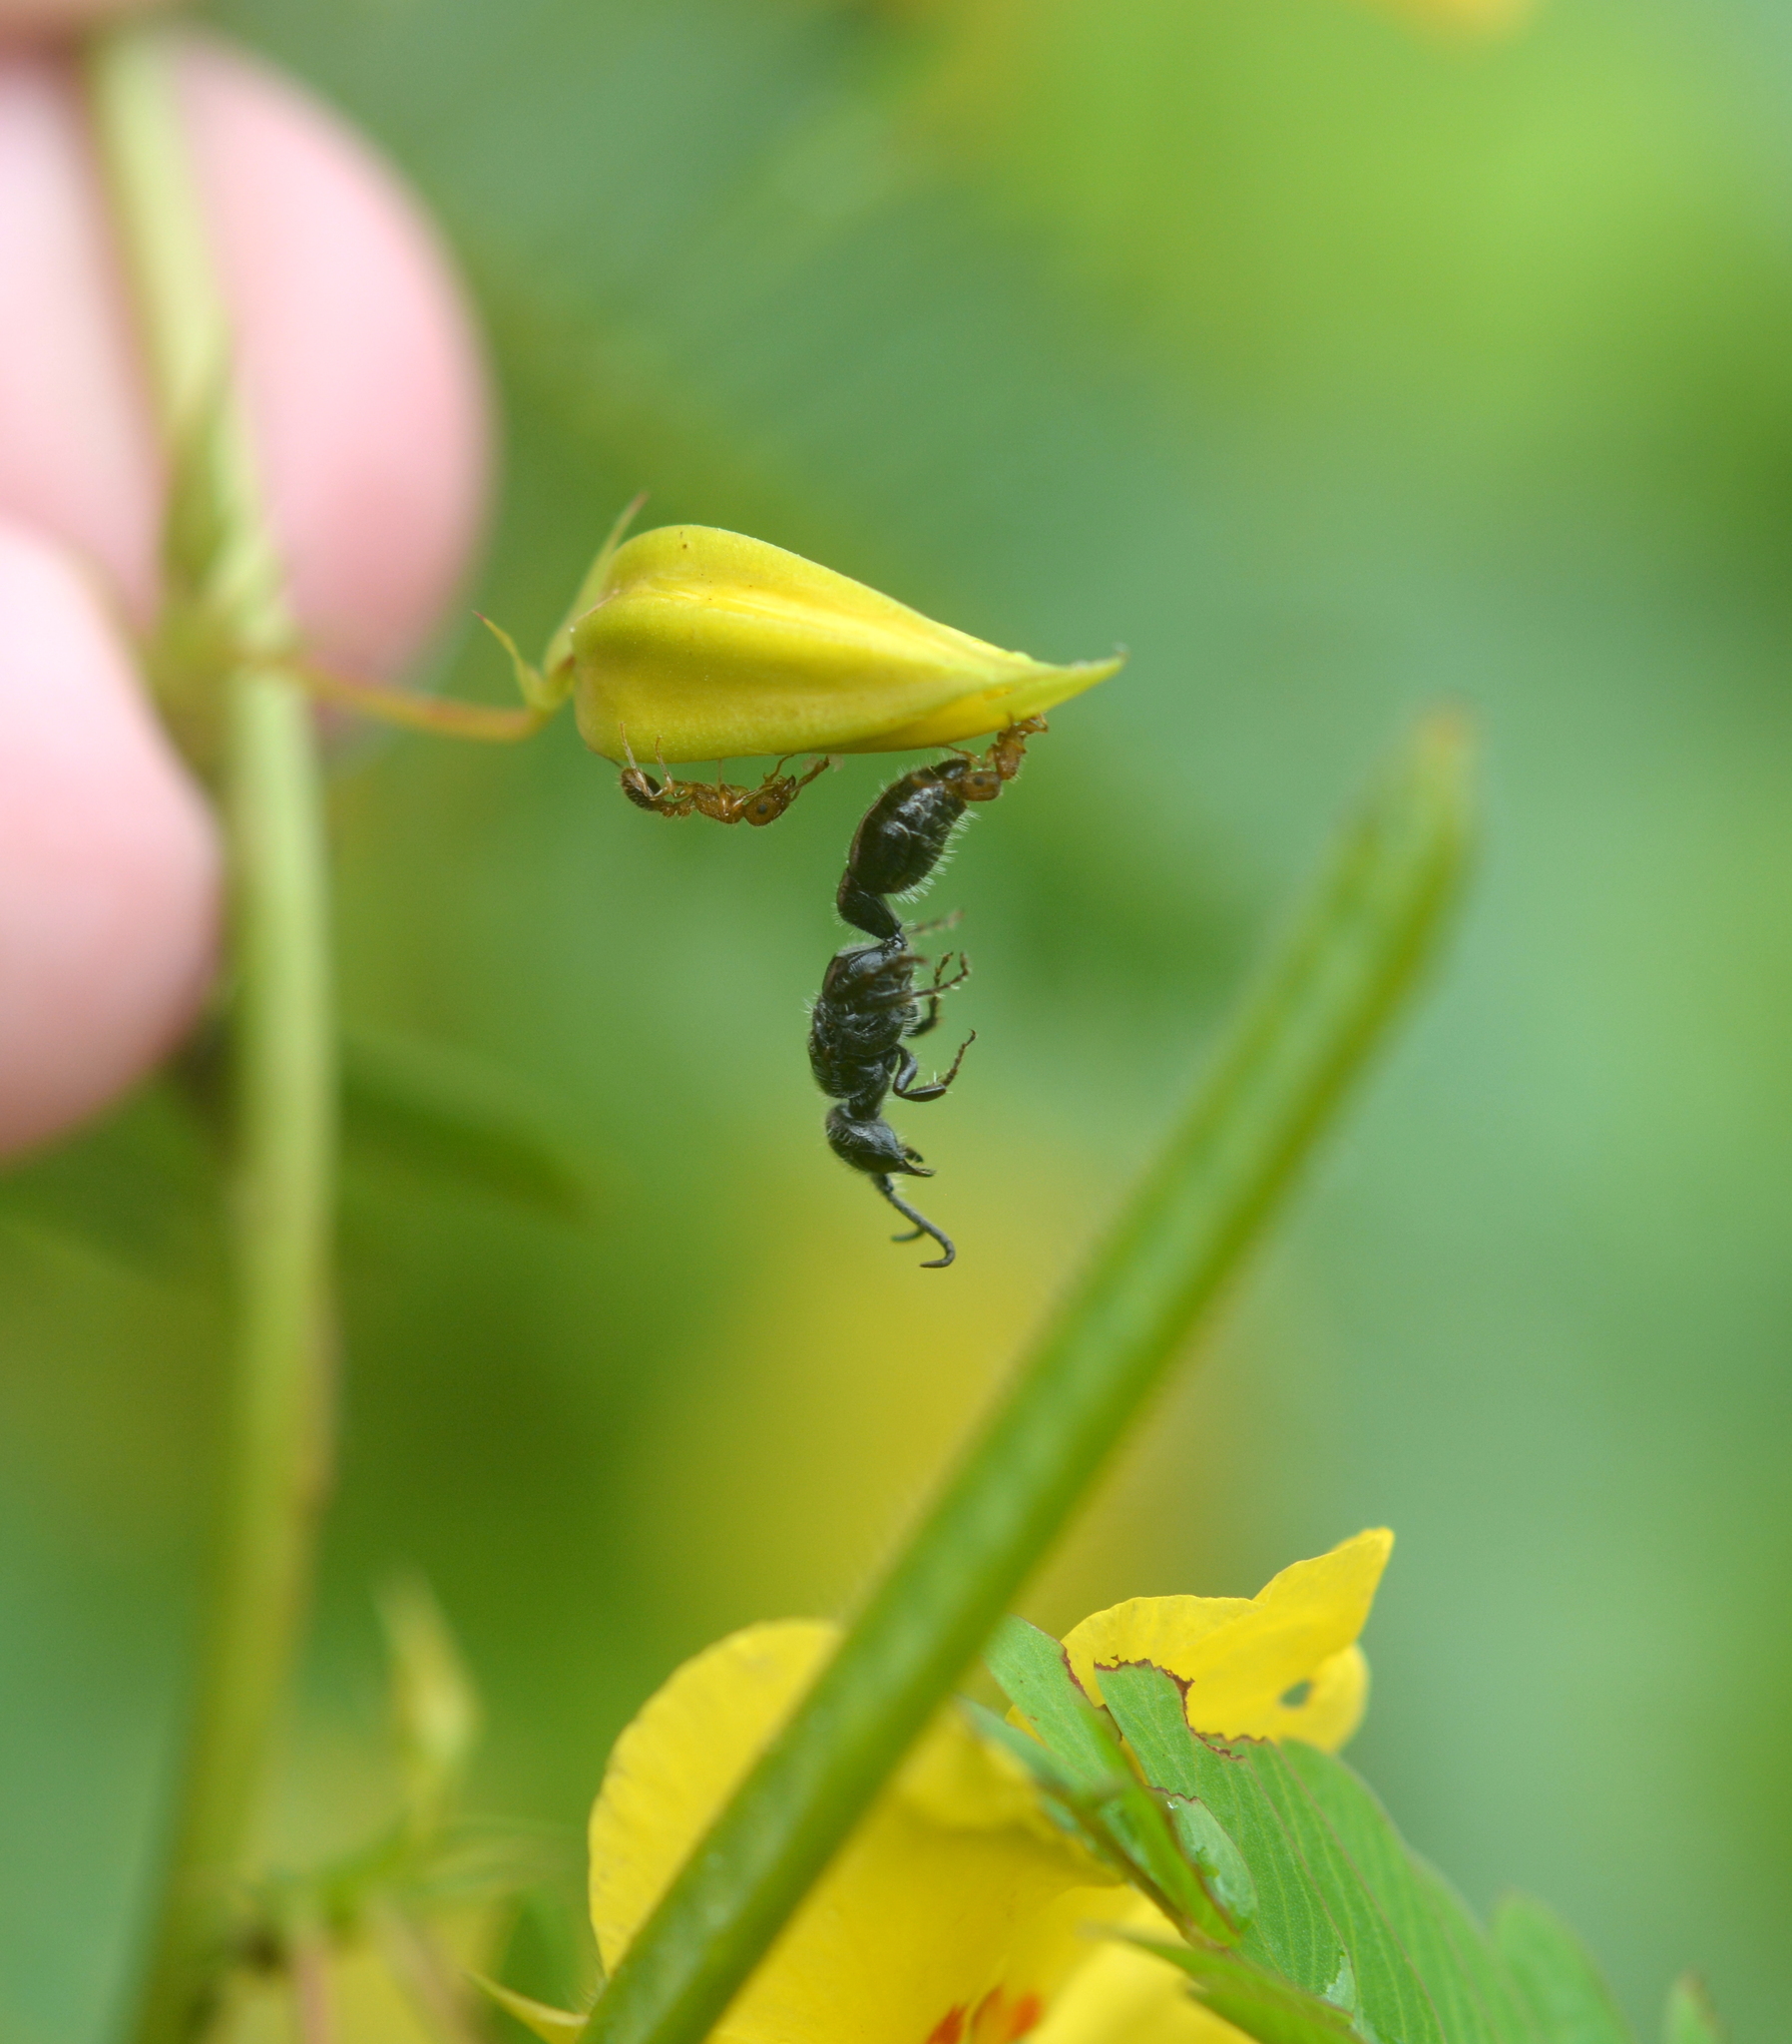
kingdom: Animalia
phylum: Arthropoda
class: Insecta
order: Hymenoptera
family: Formicidae
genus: Tetramorium
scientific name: Tetramorium bicarinatum
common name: Guinea ant
